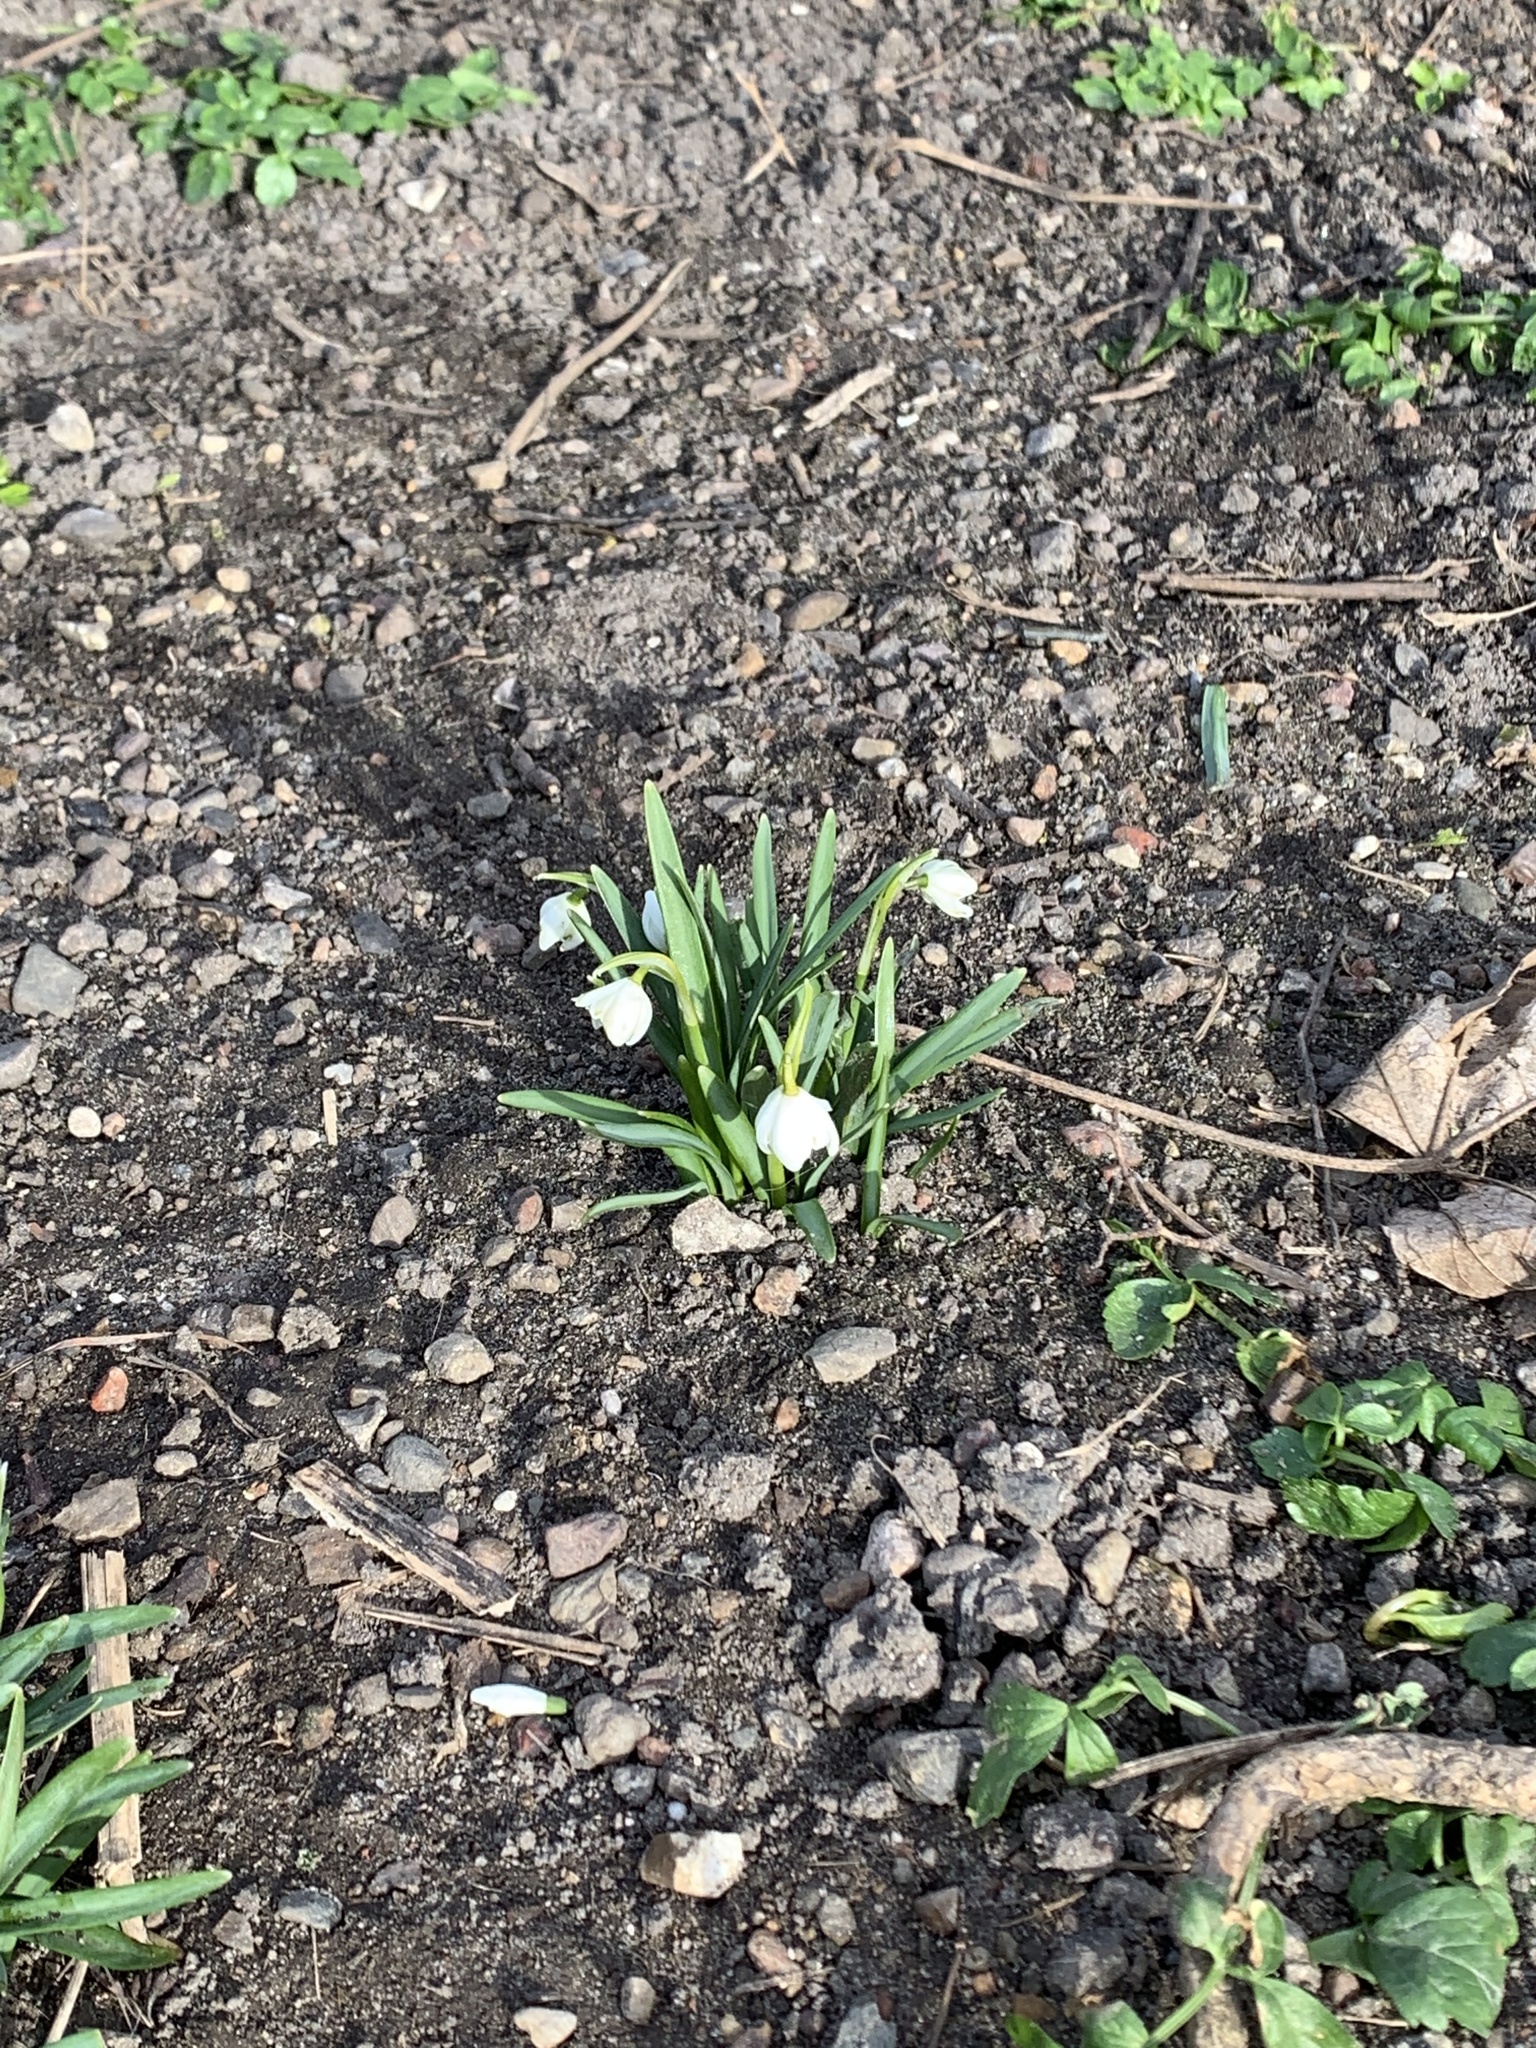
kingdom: Plantae
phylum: Tracheophyta
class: Liliopsida
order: Asparagales
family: Amaryllidaceae
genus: Galanthus
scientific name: Galanthus nivalis
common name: Snowdrop
